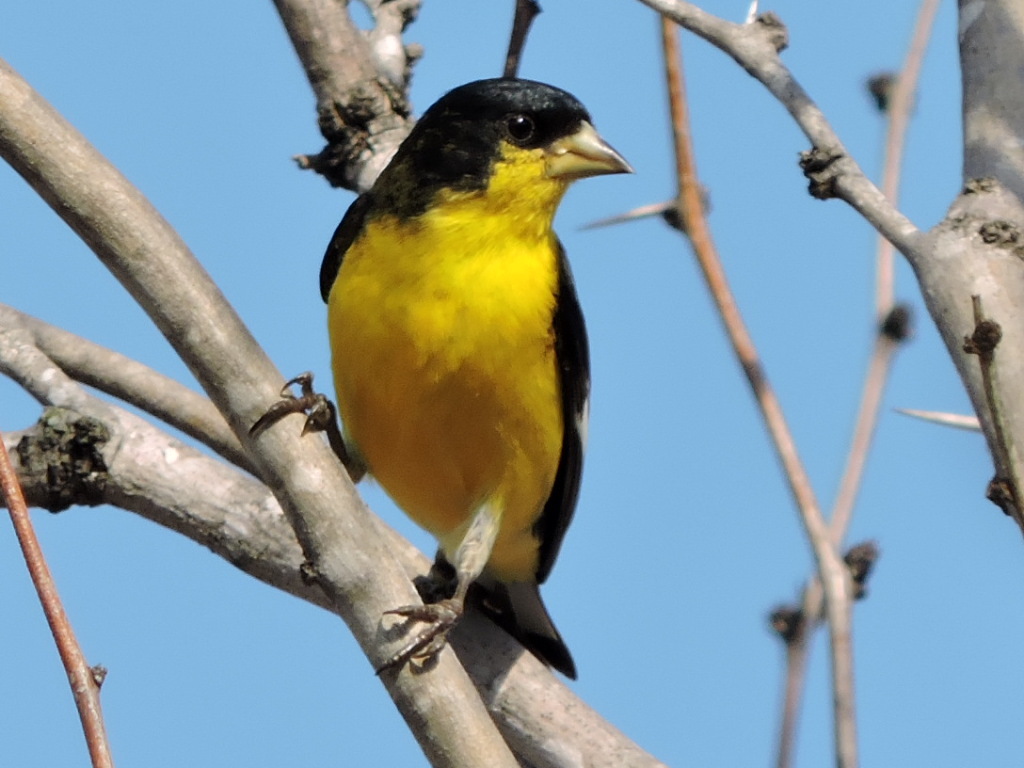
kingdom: Animalia
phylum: Chordata
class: Aves
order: Passeriformes
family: Fringillidae
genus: Spinus
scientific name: Spinus psaltria
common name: Lesser goldfinch
